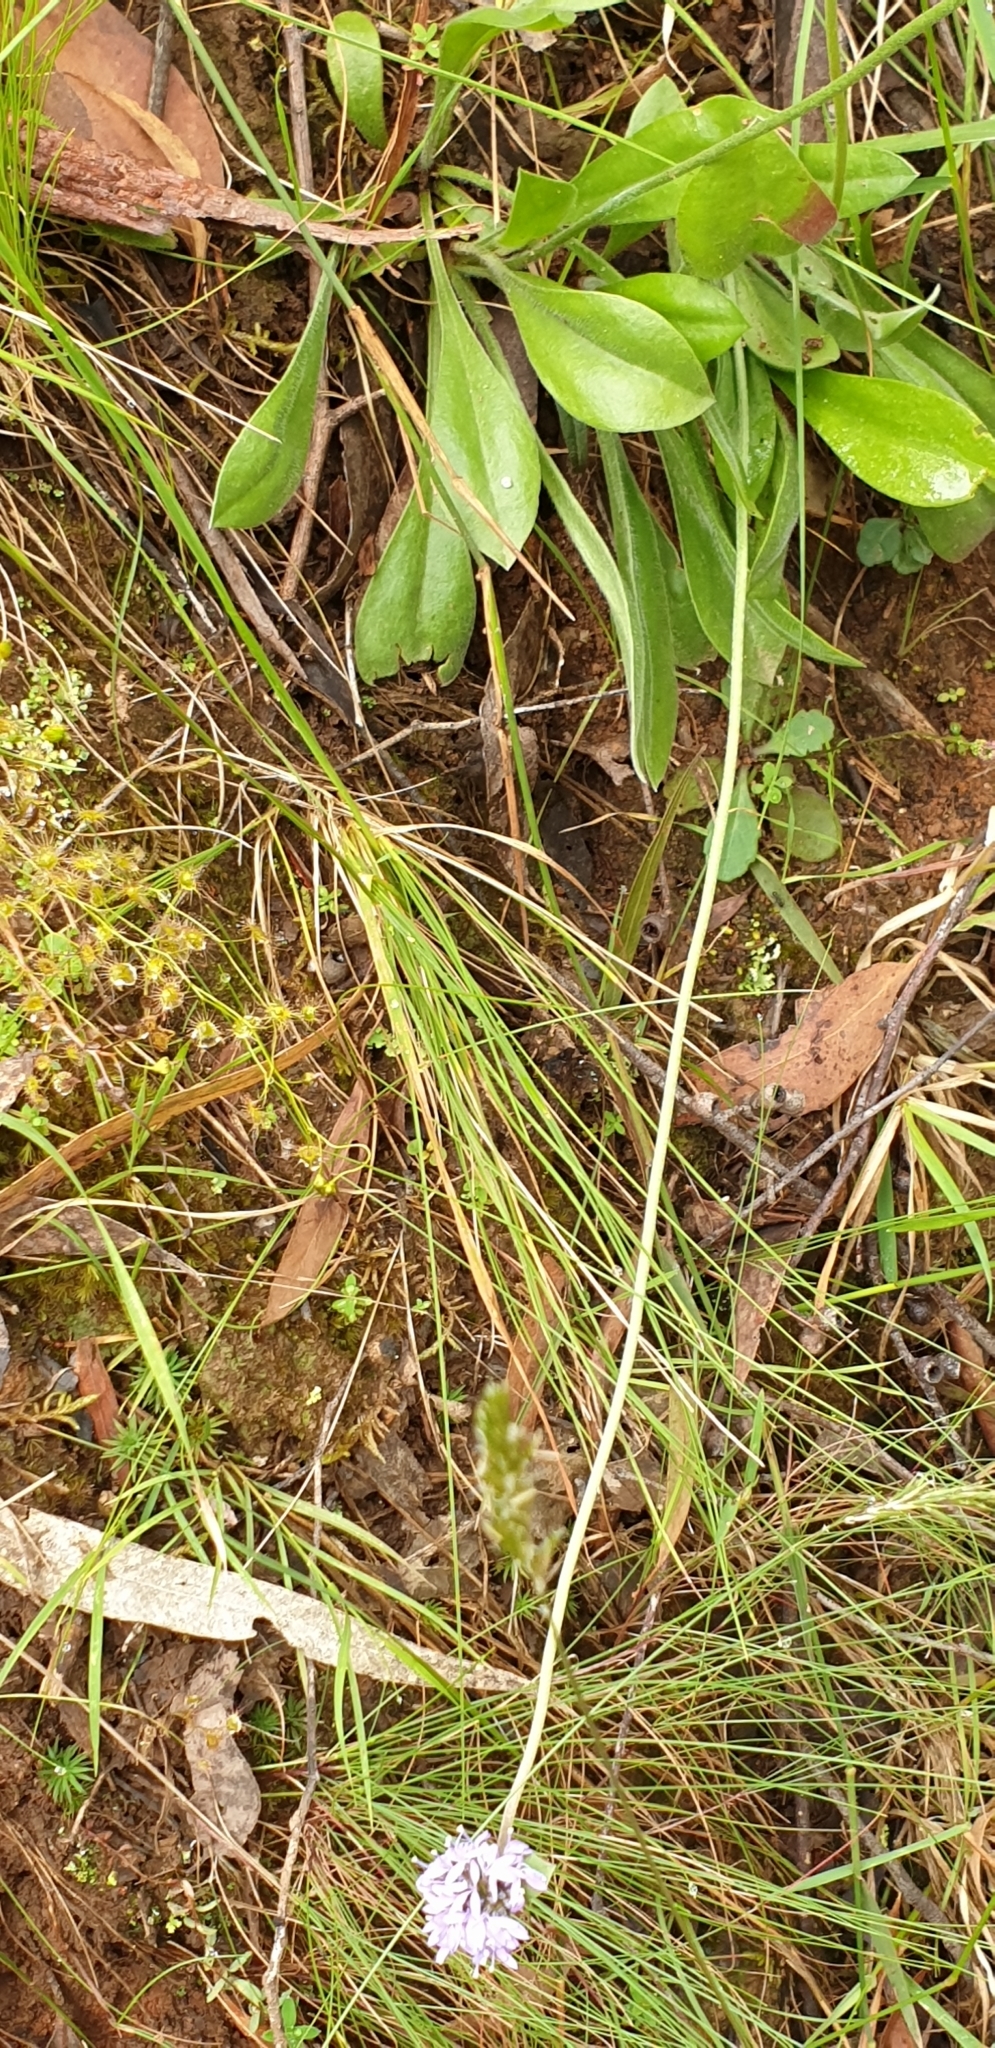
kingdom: Plantae
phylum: Tracheophyta
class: Magnoliopsida
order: Asterales
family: Goodeniaceae
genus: Brunonia
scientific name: Brunonia australis
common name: Blue pincushion
